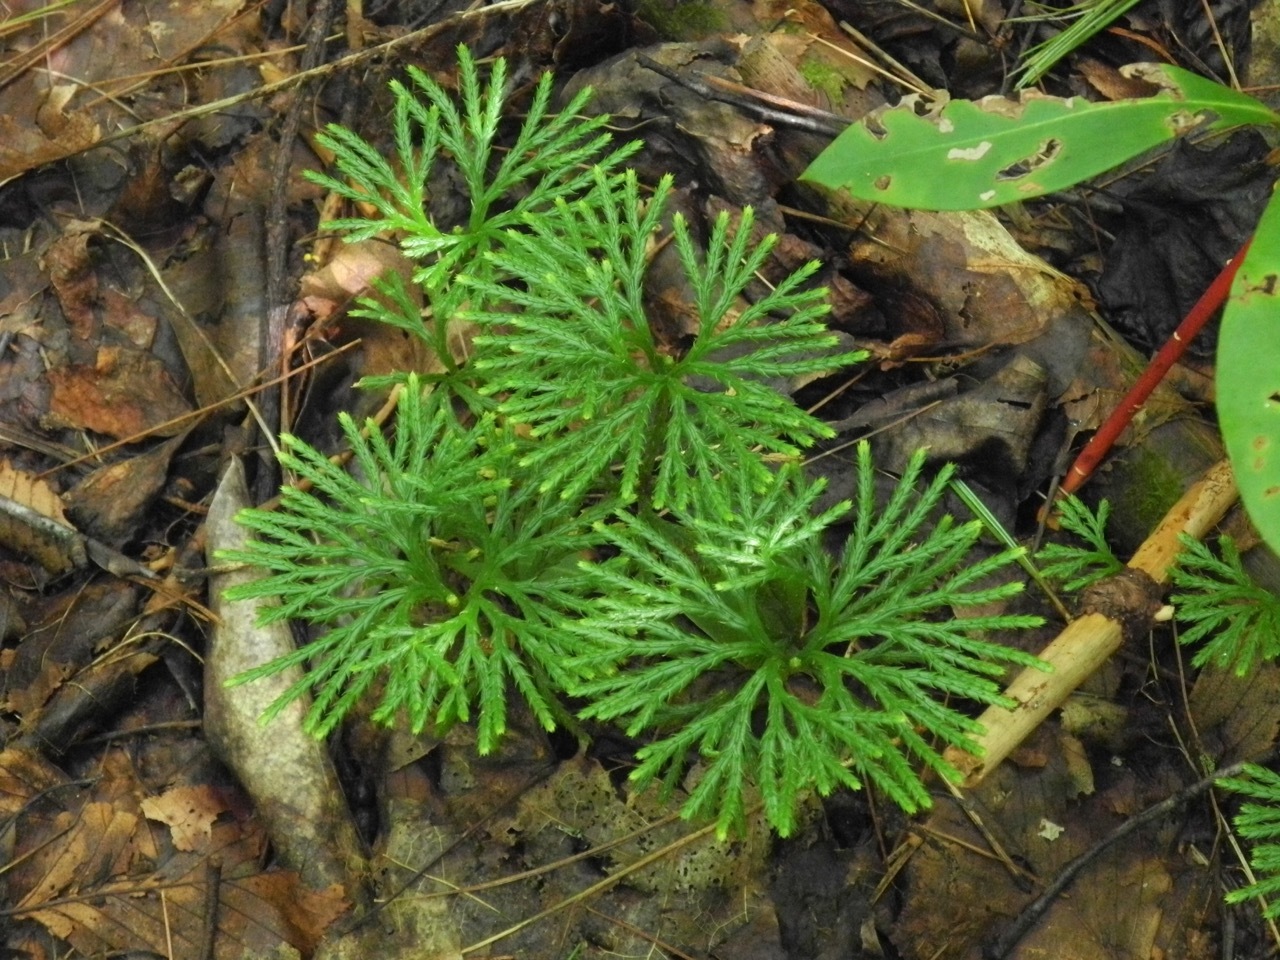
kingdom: Plantae
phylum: Tracheophyta
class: Lycopodiopsida
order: Lycopodiales
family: Lycopodiaceae
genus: Diphasiastrum
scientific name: Diphasiastrum digitatum
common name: Southern running-pine
